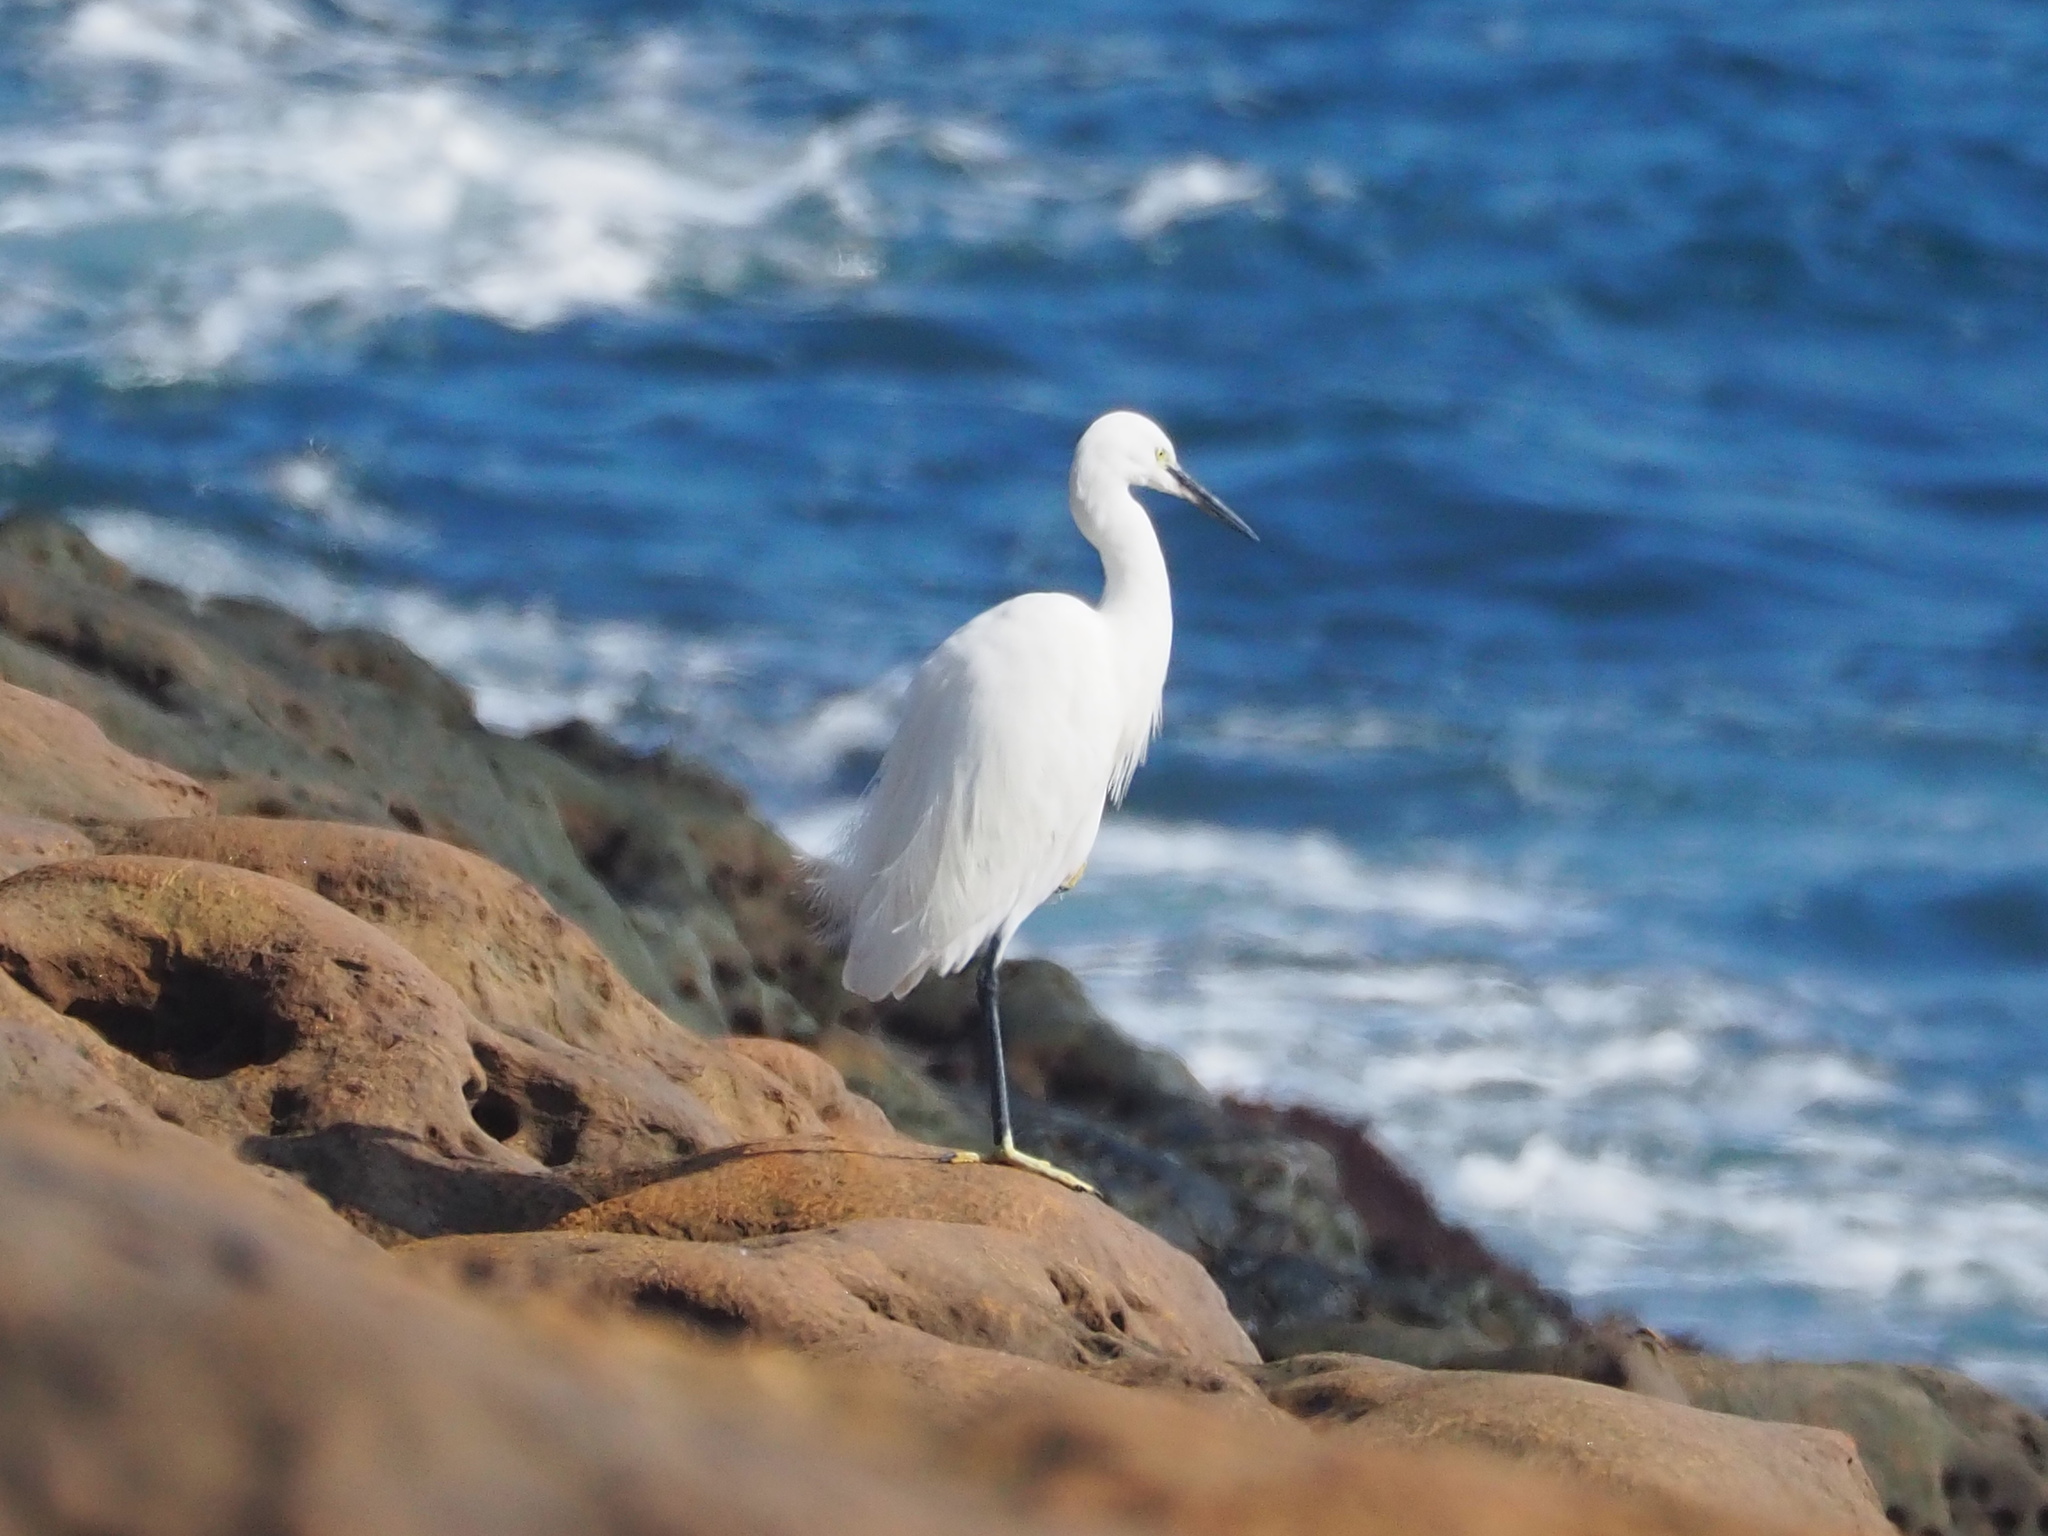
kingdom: Animalia
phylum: Chordata
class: Aves
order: Pelecaniformes
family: Ardeidae
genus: Egretta
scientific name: Egretta garzetta
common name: Little egret
